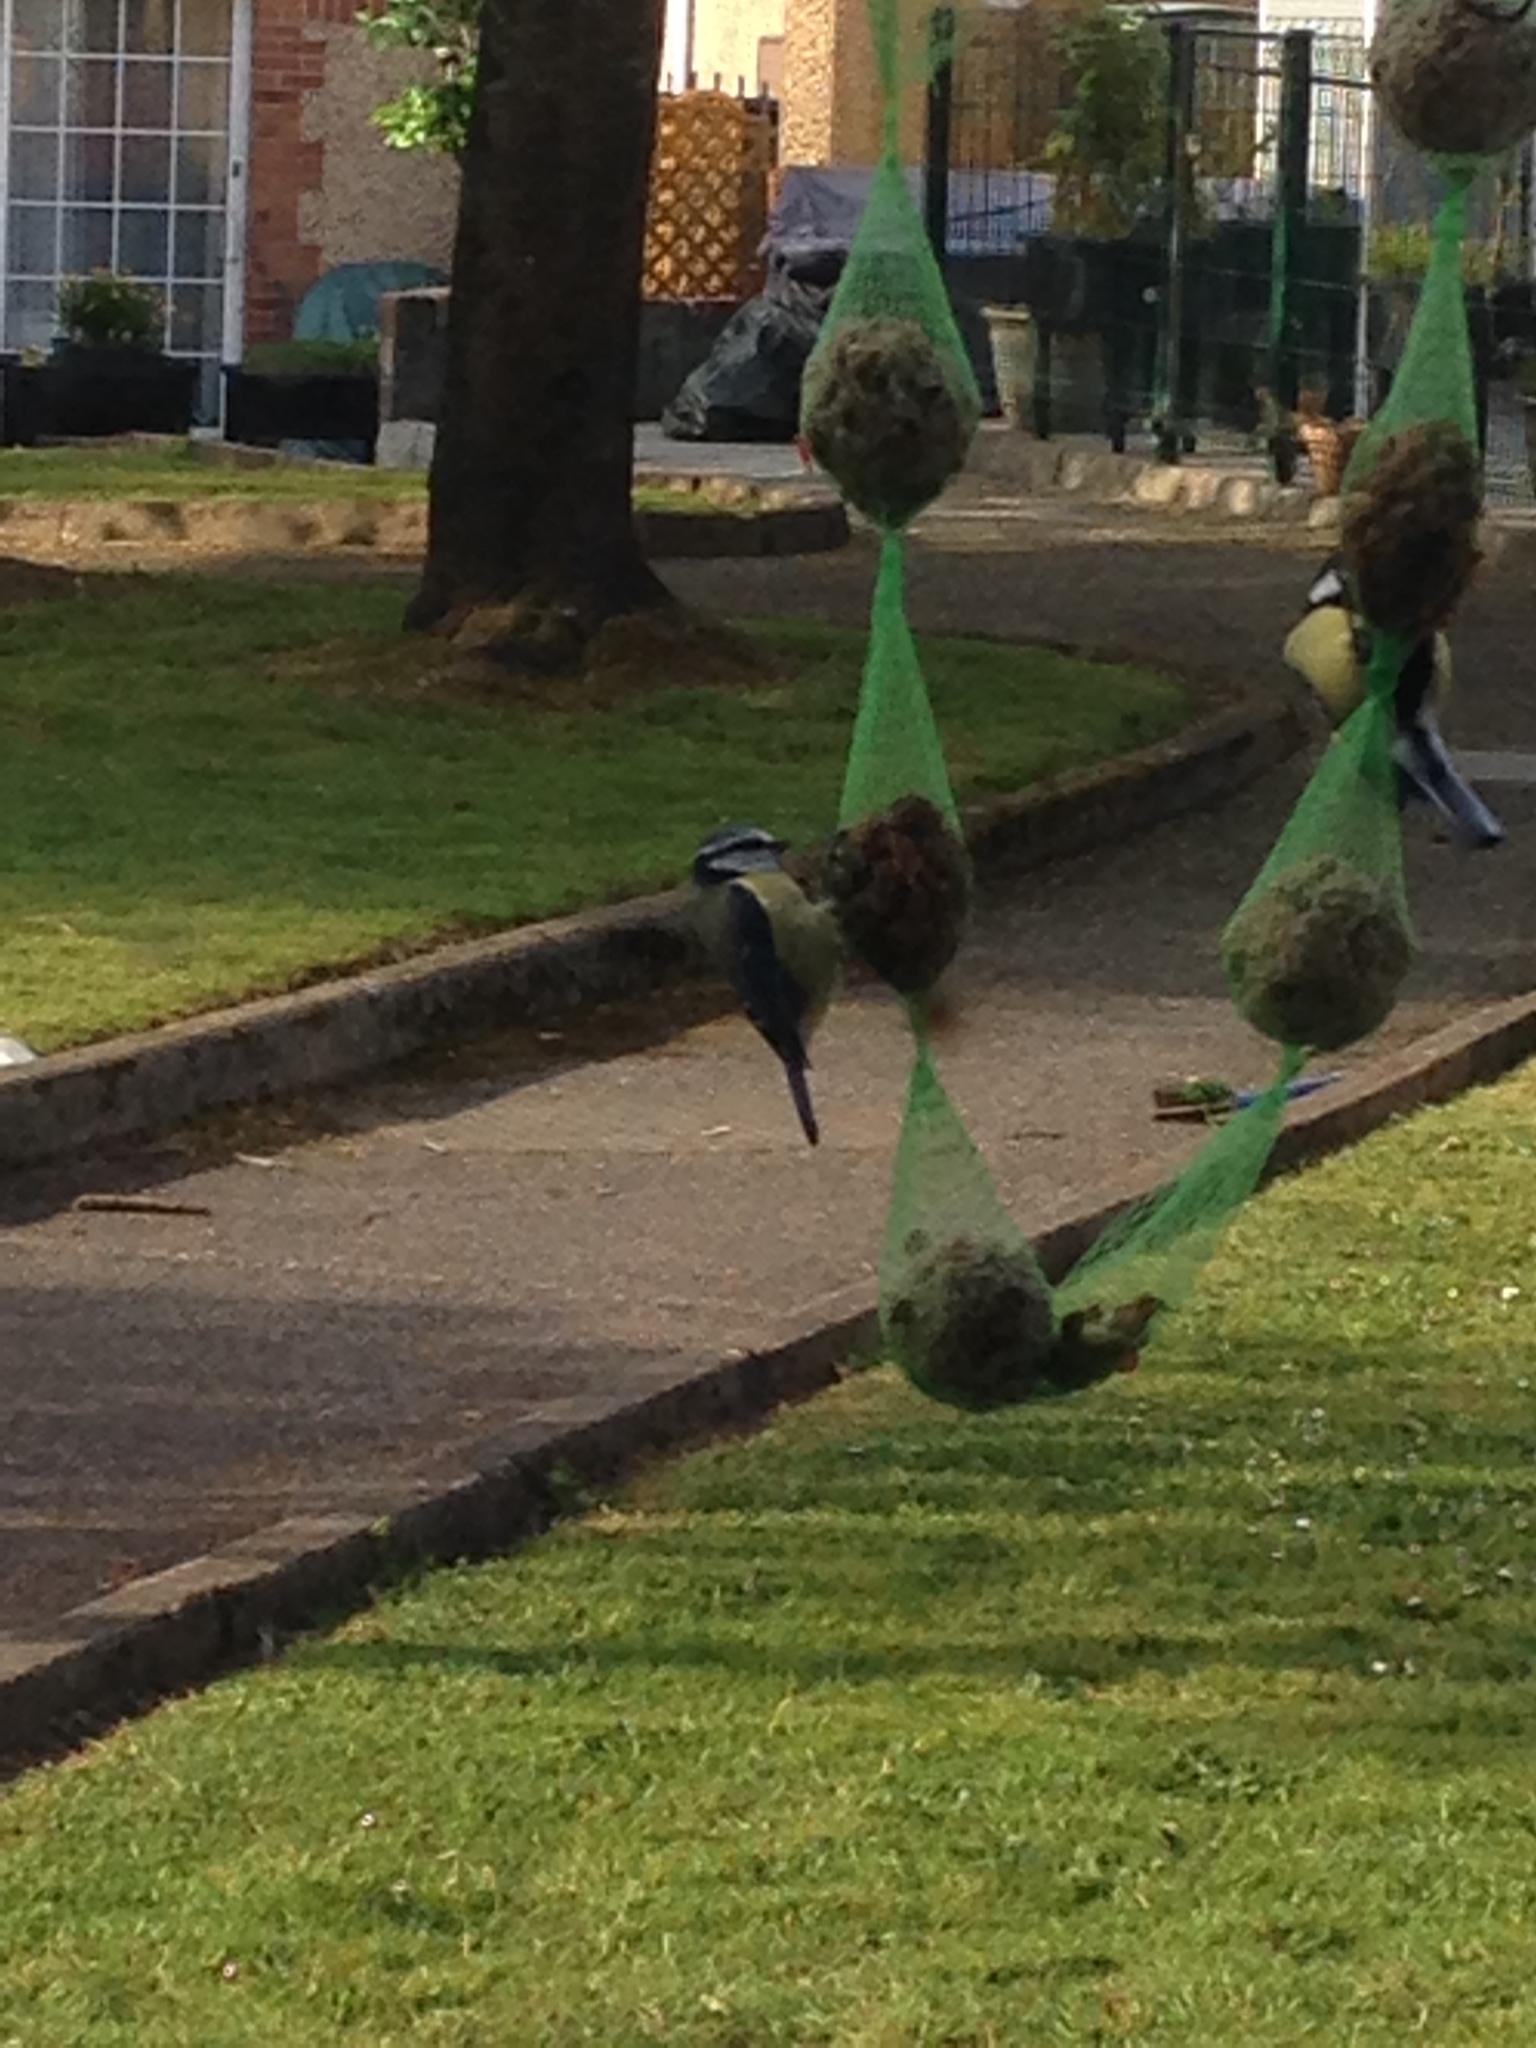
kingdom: Animalia
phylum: Chordata
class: Aves
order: Passeriformes
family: Paridae
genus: Cyanistes
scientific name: Cyanistes caeruleus
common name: Eurasian blue tit
